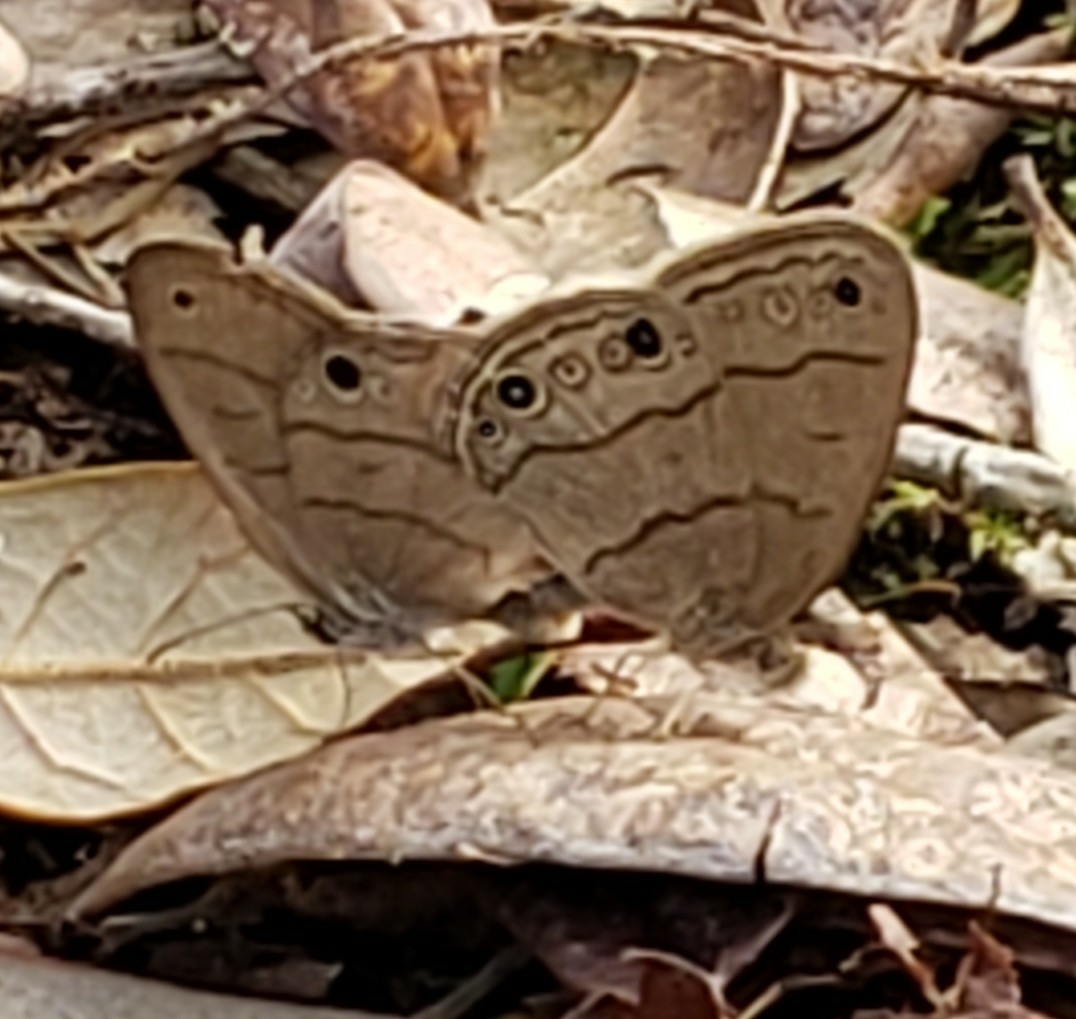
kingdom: Animalia
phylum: Arthropoda
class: Insecta
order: Lepidoptera
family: Nymphalidae
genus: Hermeuptychia
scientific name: Hermeuptychia hermes
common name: Hermes satyr
